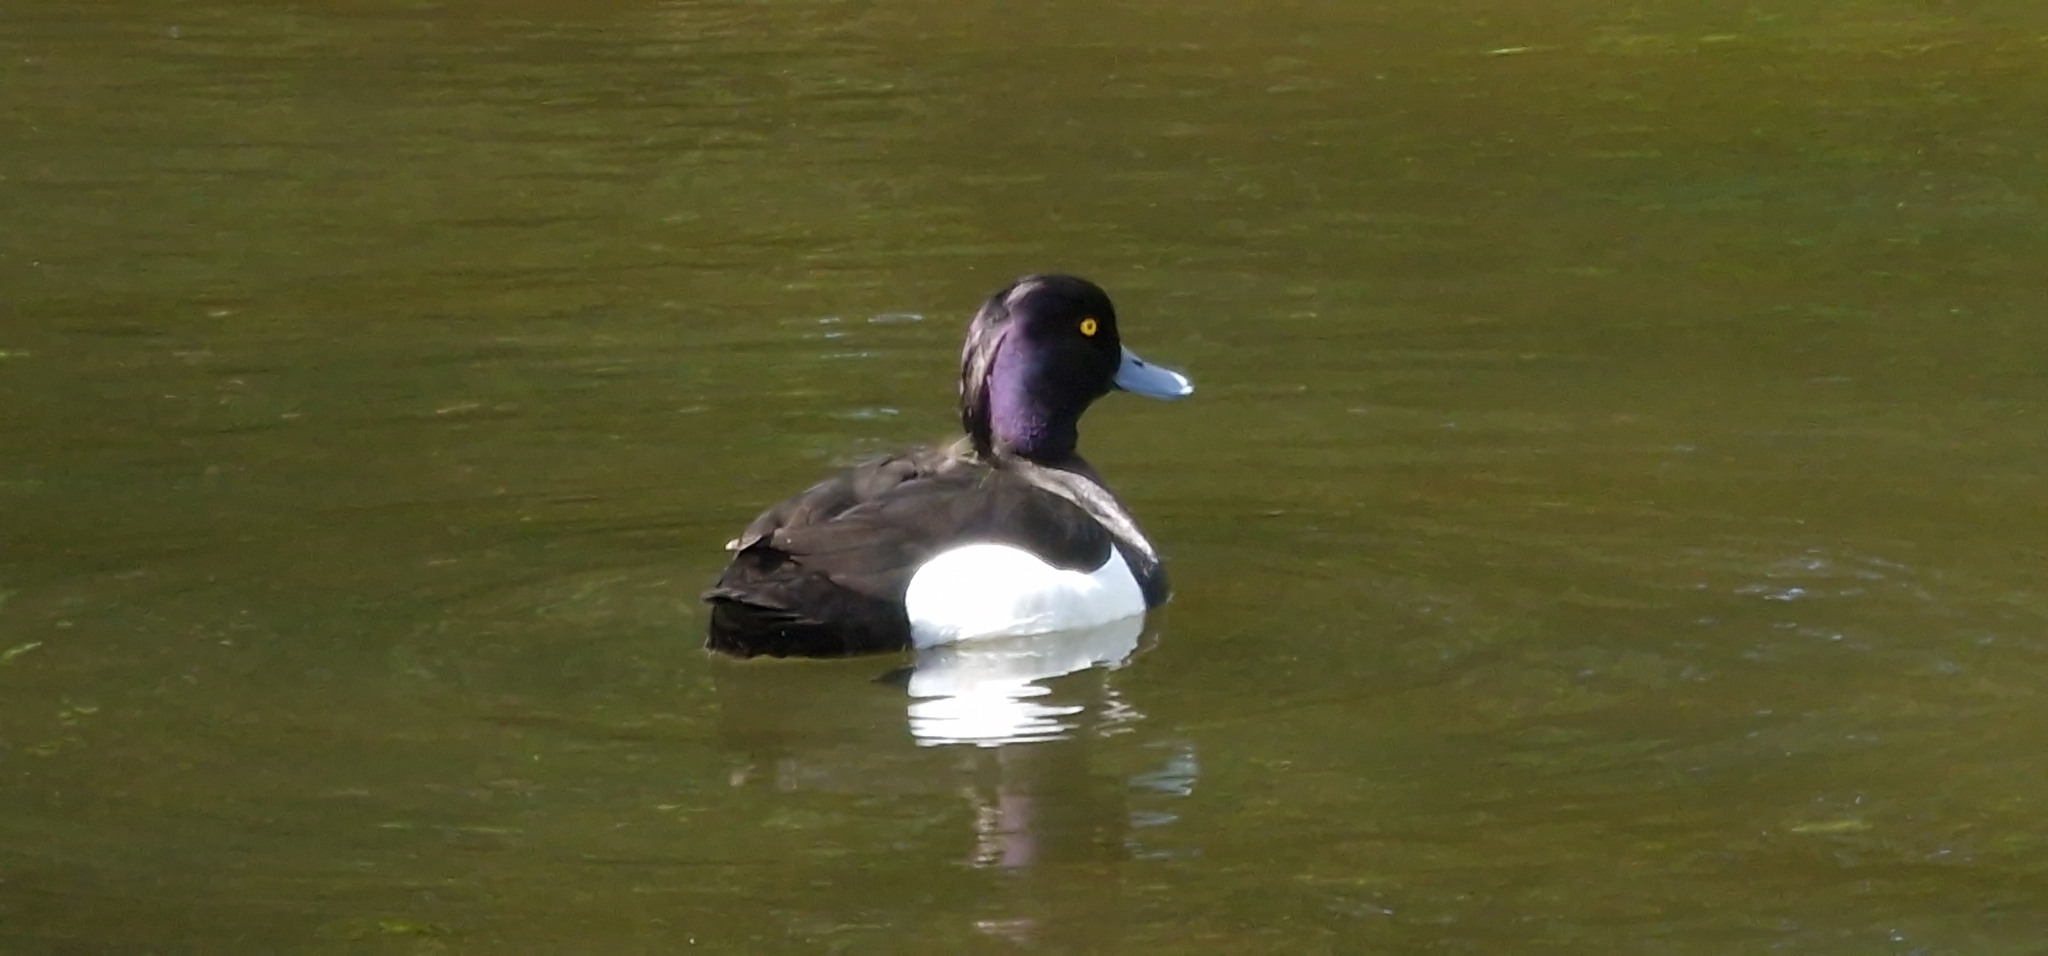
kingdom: Animalia
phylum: Chordata
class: Aves
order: Anseriformes
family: Anatidae
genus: Aythya
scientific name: Aythya fuligula
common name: Tufted duck
